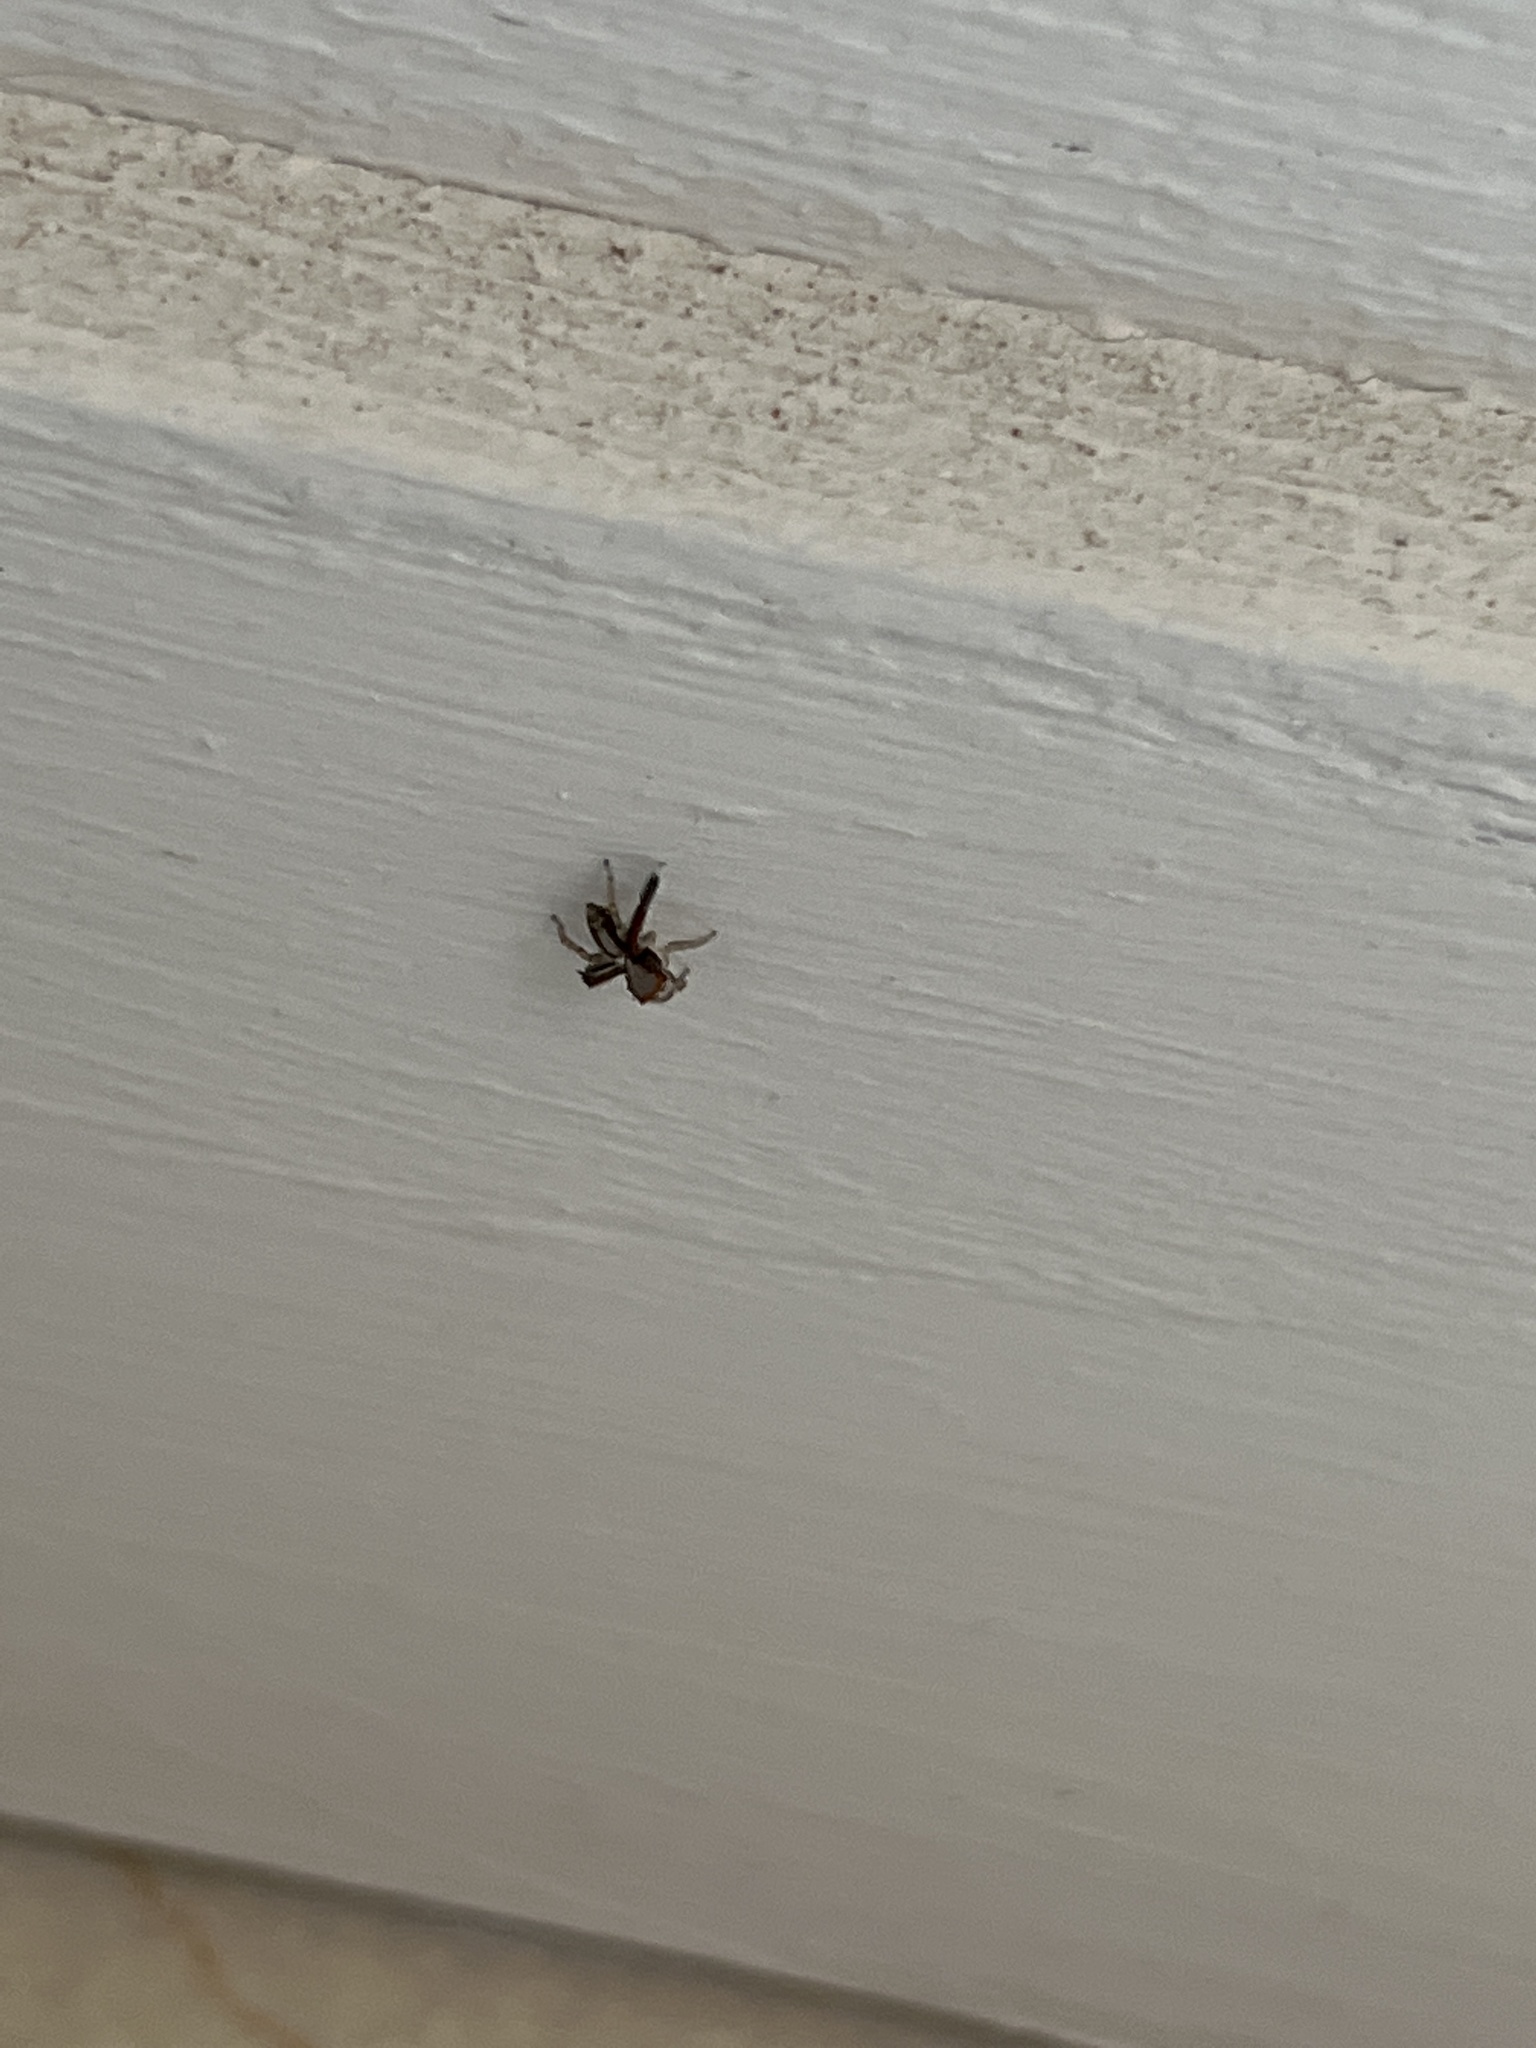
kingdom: Animalia
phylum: Arthropoda
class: Arachnida
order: Araneae
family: Salticidae
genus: Saitis
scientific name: Saitis barbipes
